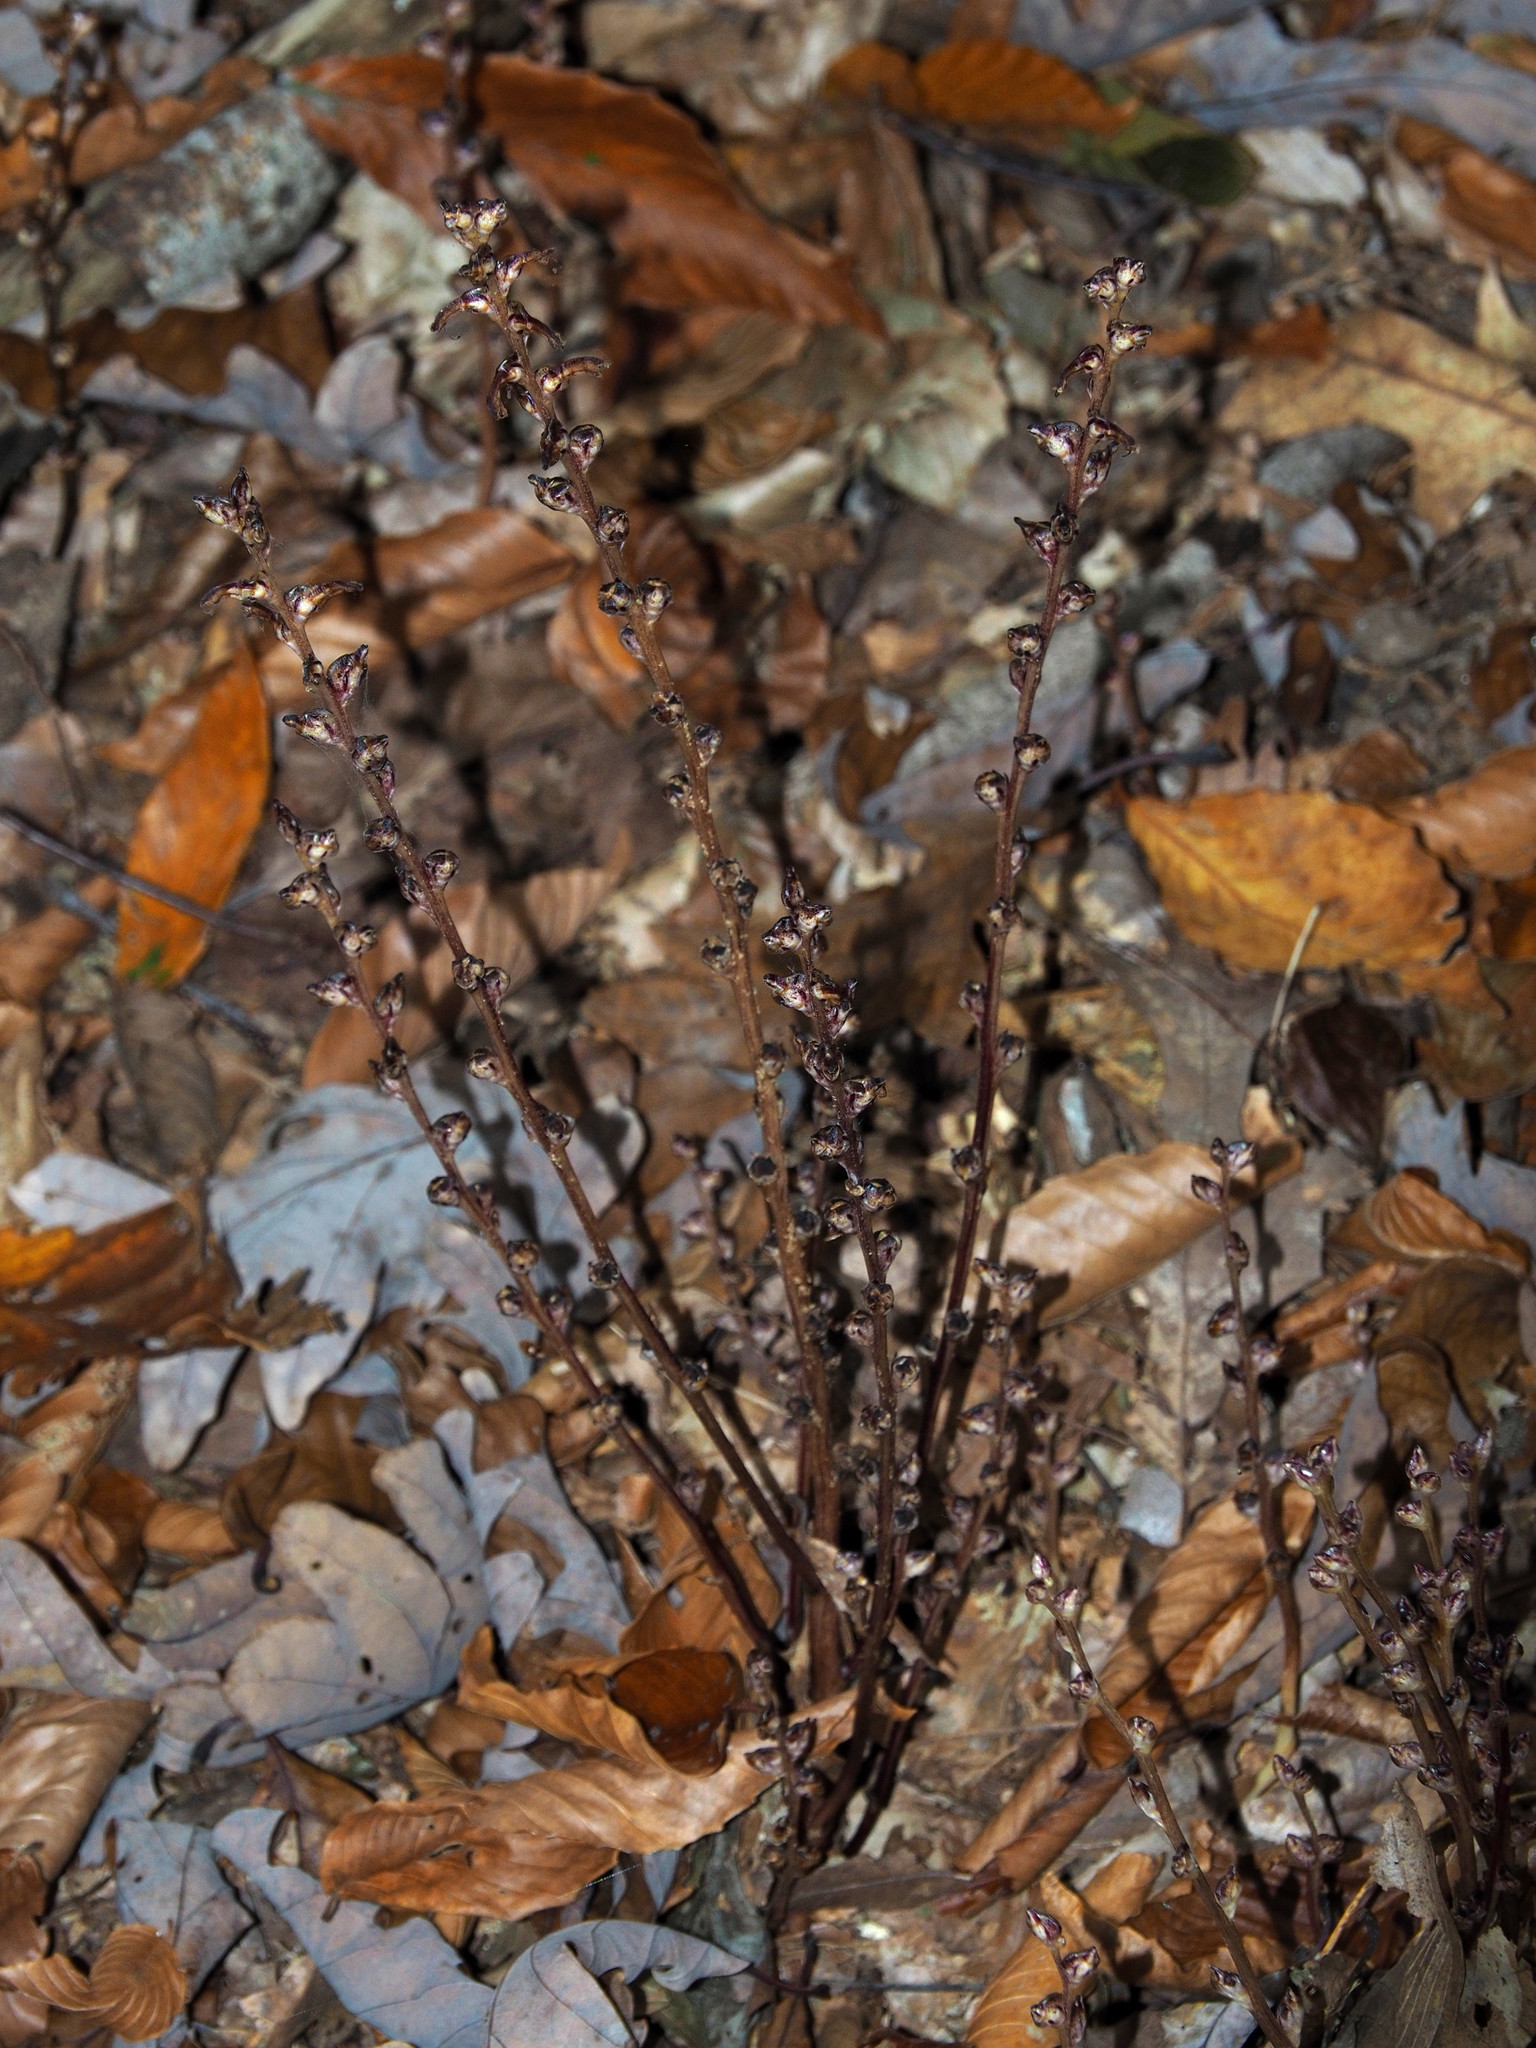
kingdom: Plantae
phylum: Tracheophyta
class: Magnoliopsida
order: Lamiales
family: Orobanchaceae
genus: Epifagus
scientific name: Epifagus virginiana
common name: Beechdrops
